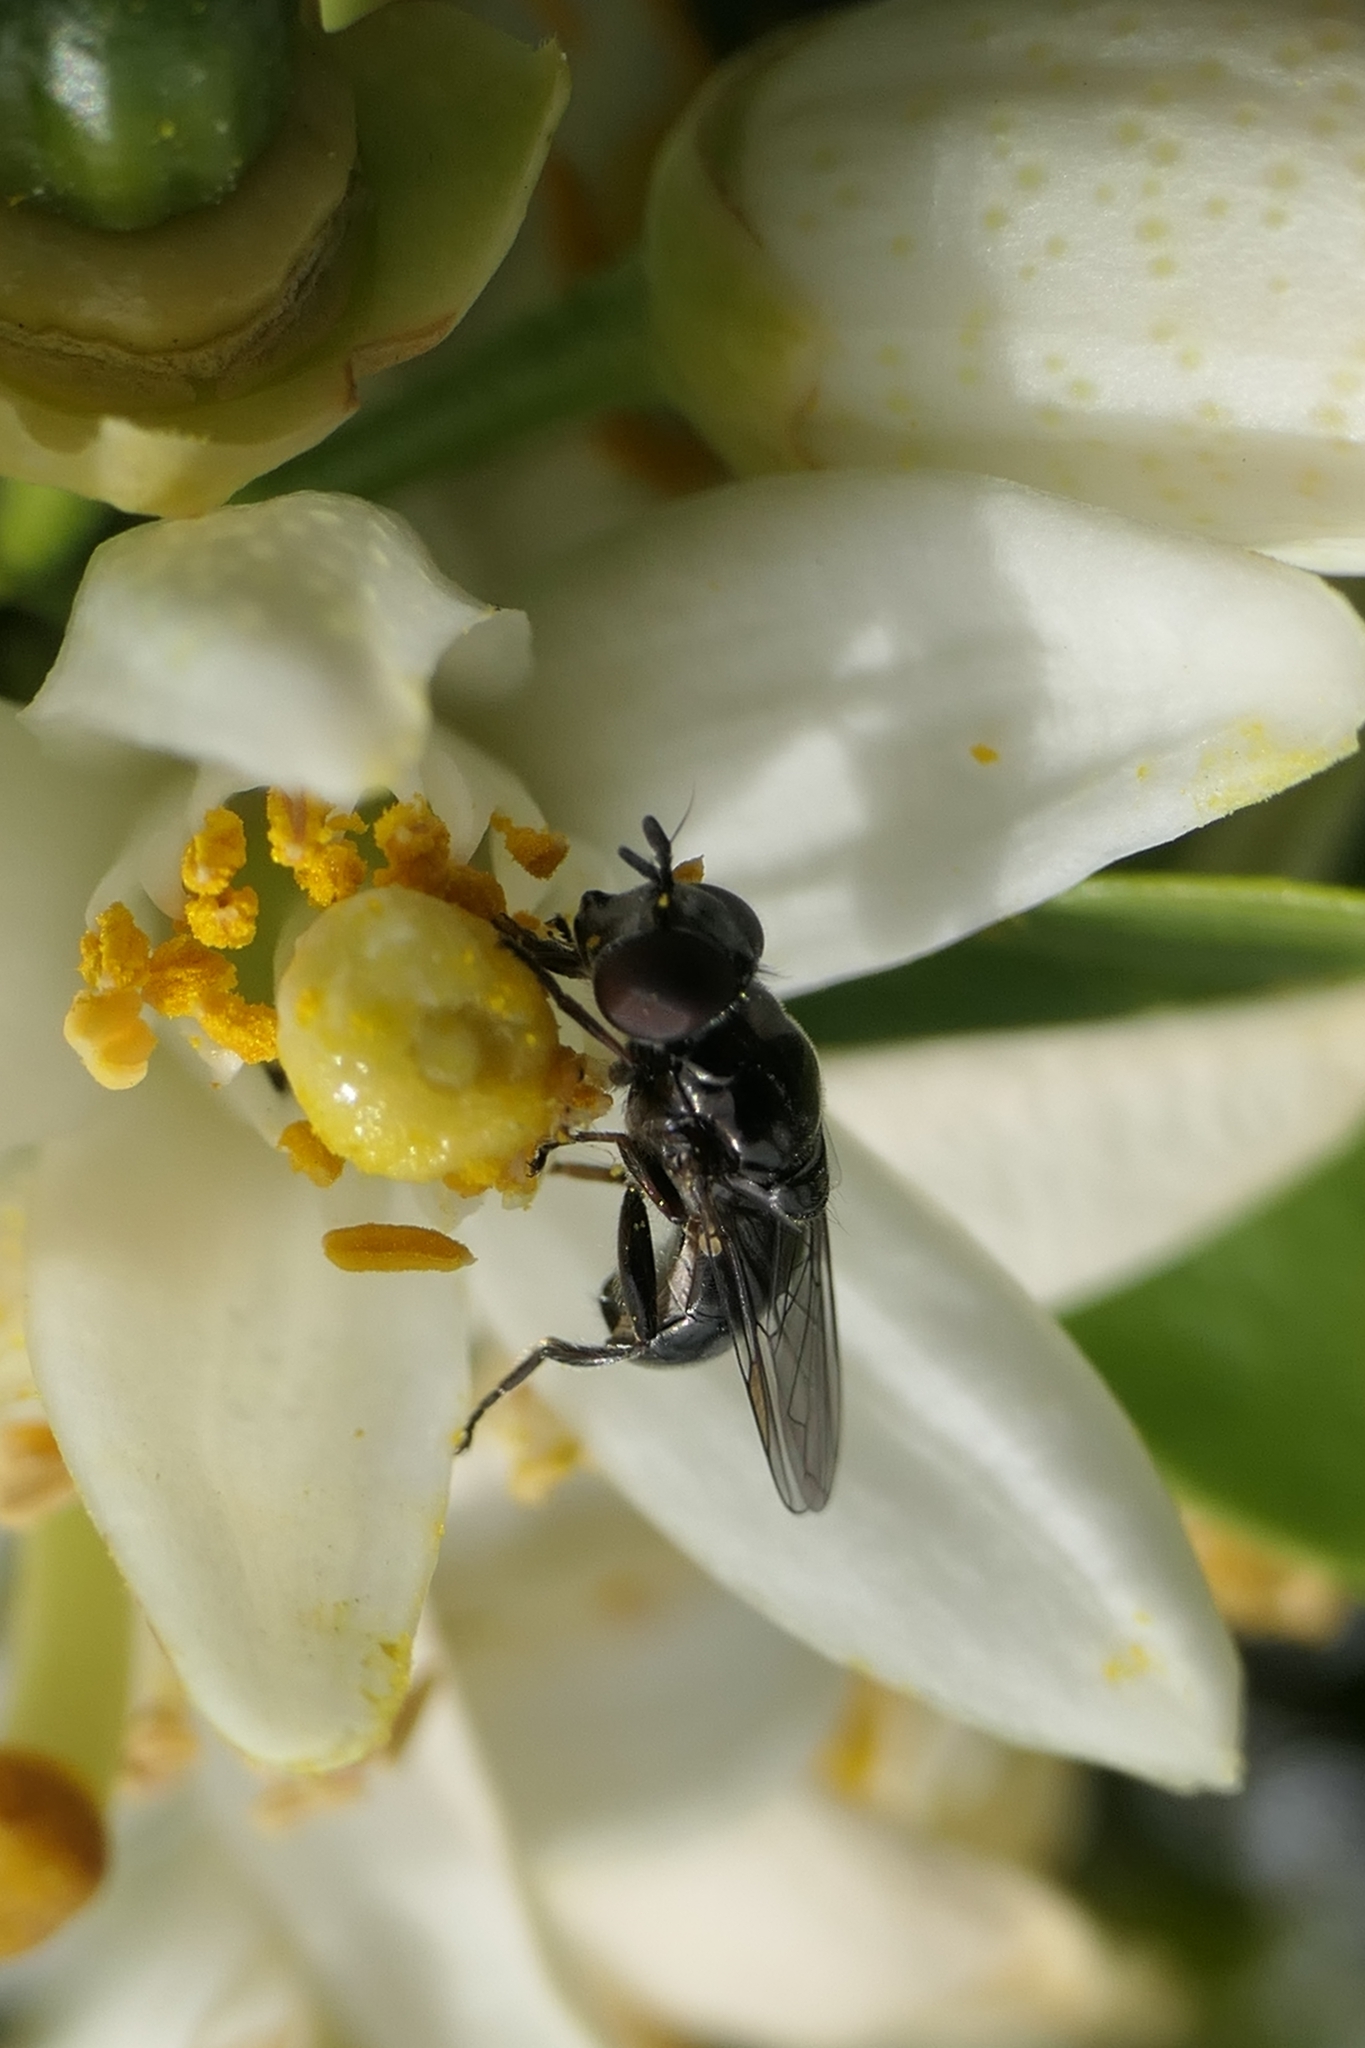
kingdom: Animalia
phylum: Arthropoda
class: Insecta
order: Diptera
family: Syrphidae
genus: Psilota
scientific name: Psilota decessum
